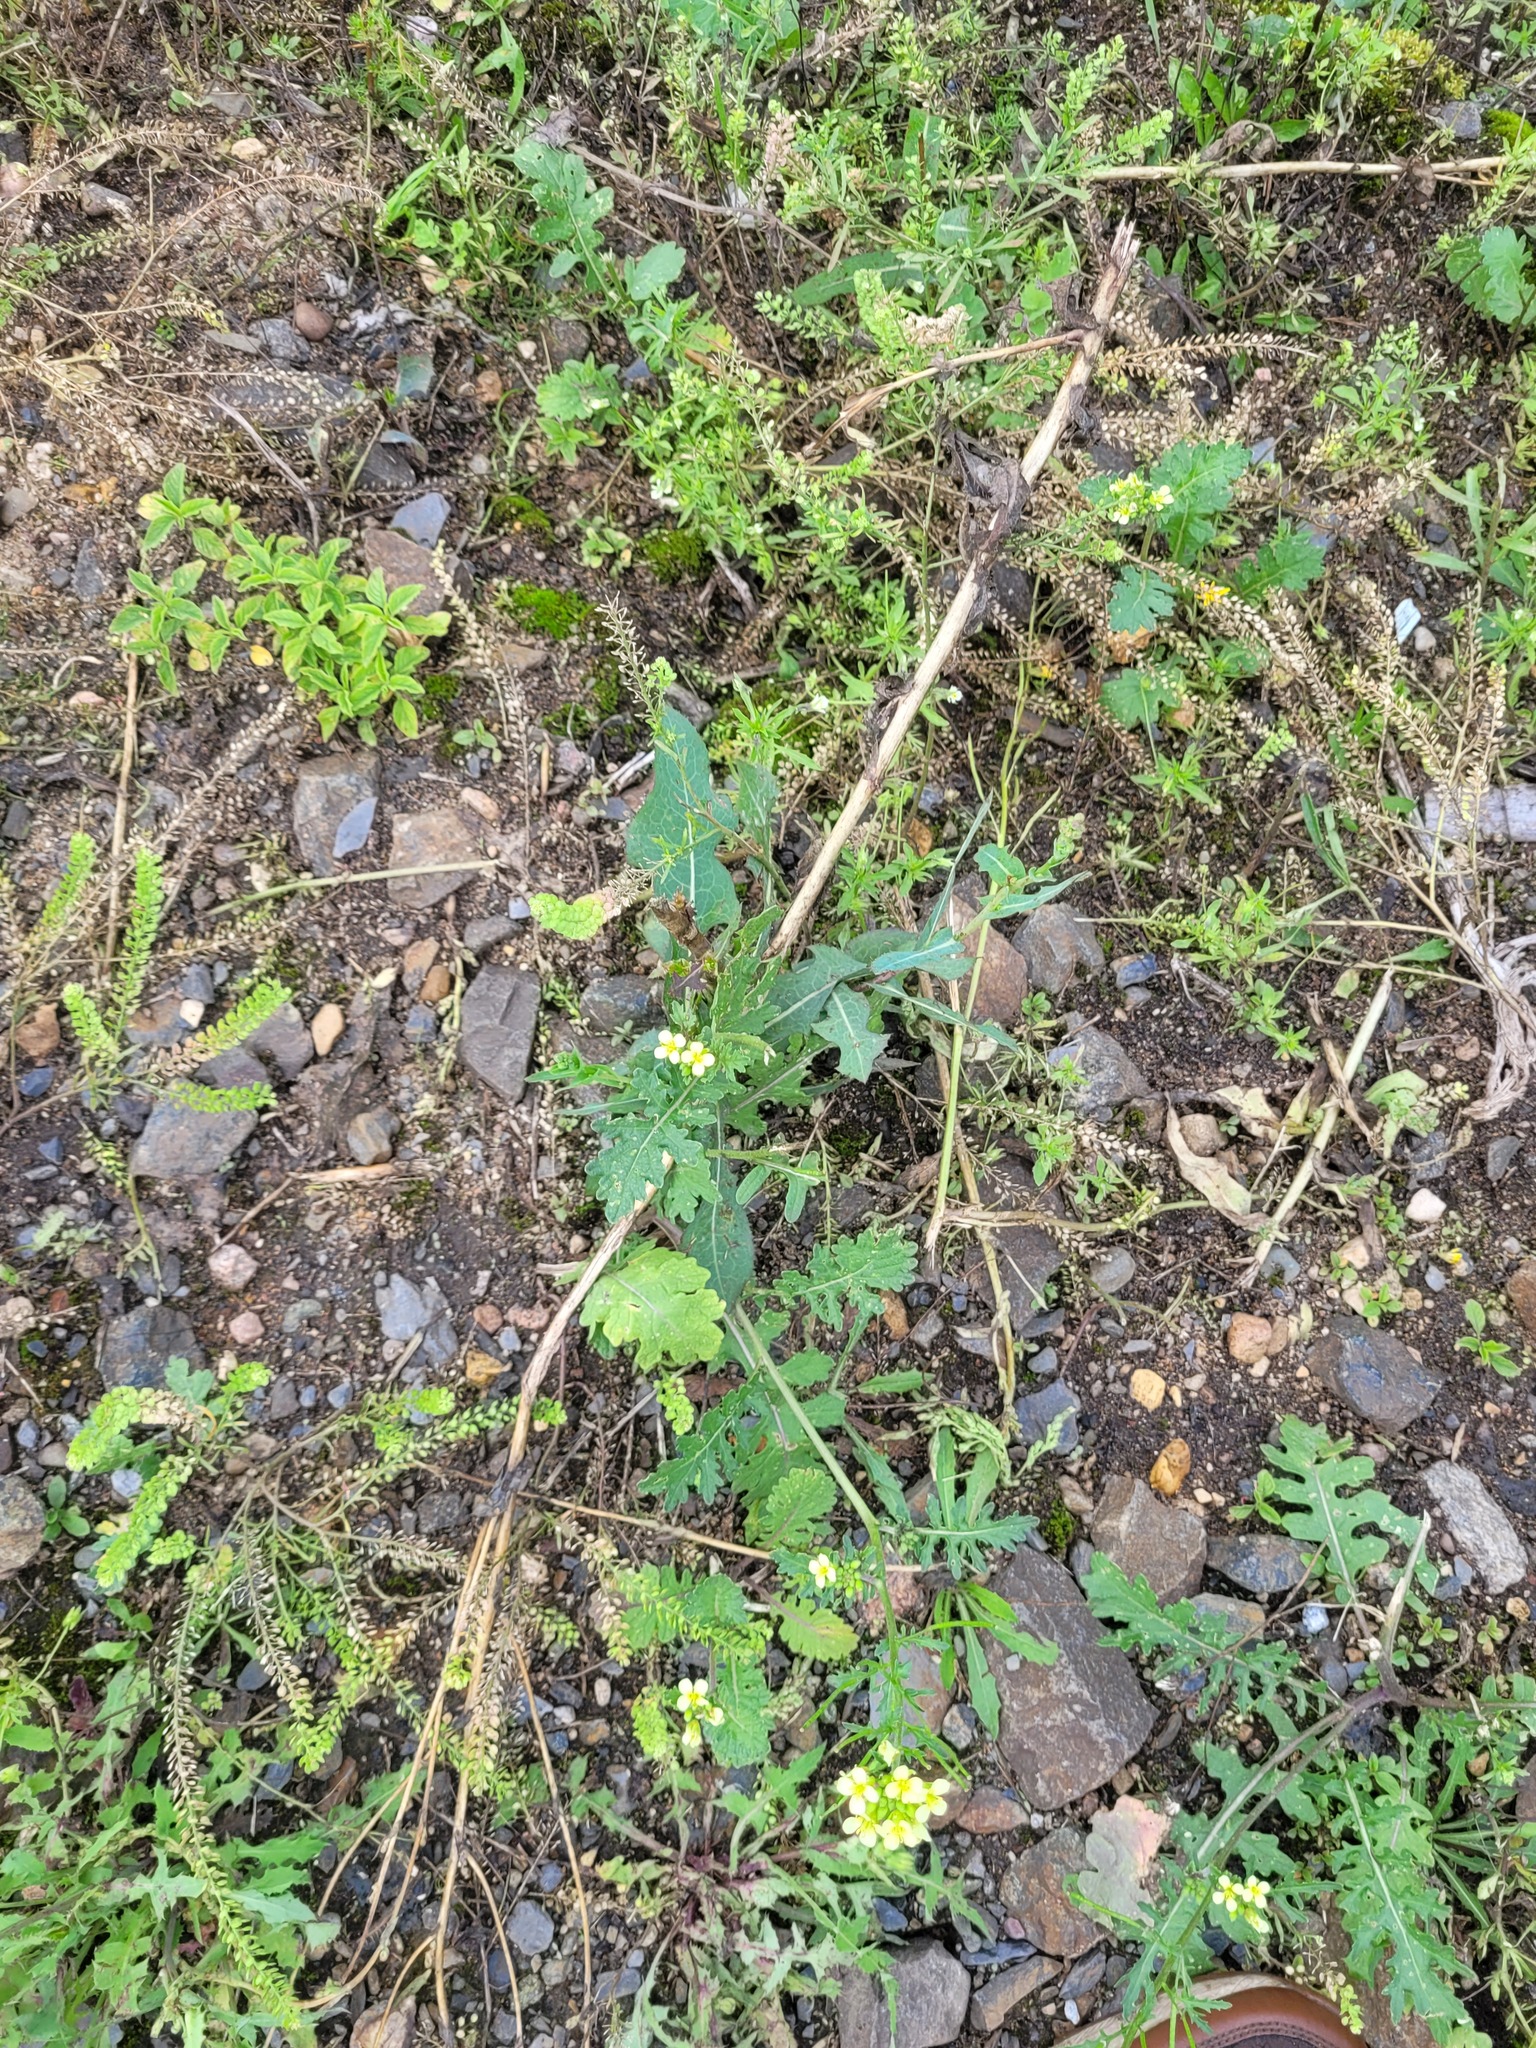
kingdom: Plantae
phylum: Tracheophyta
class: Magnoliopsida
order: Brassicales
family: Brassicaceae
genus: Erucastrum
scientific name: Erucastrum gallicum
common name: Hairy rocket
